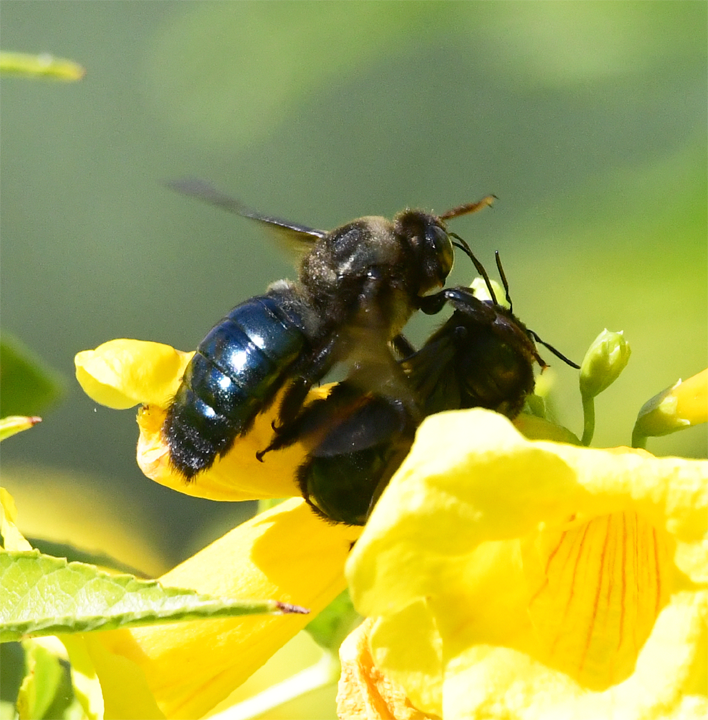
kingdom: Animalia
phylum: Arthropoda
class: Insecta
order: Hymenoptera
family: Apidae
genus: Xylocopa
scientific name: Xylocopa californica
